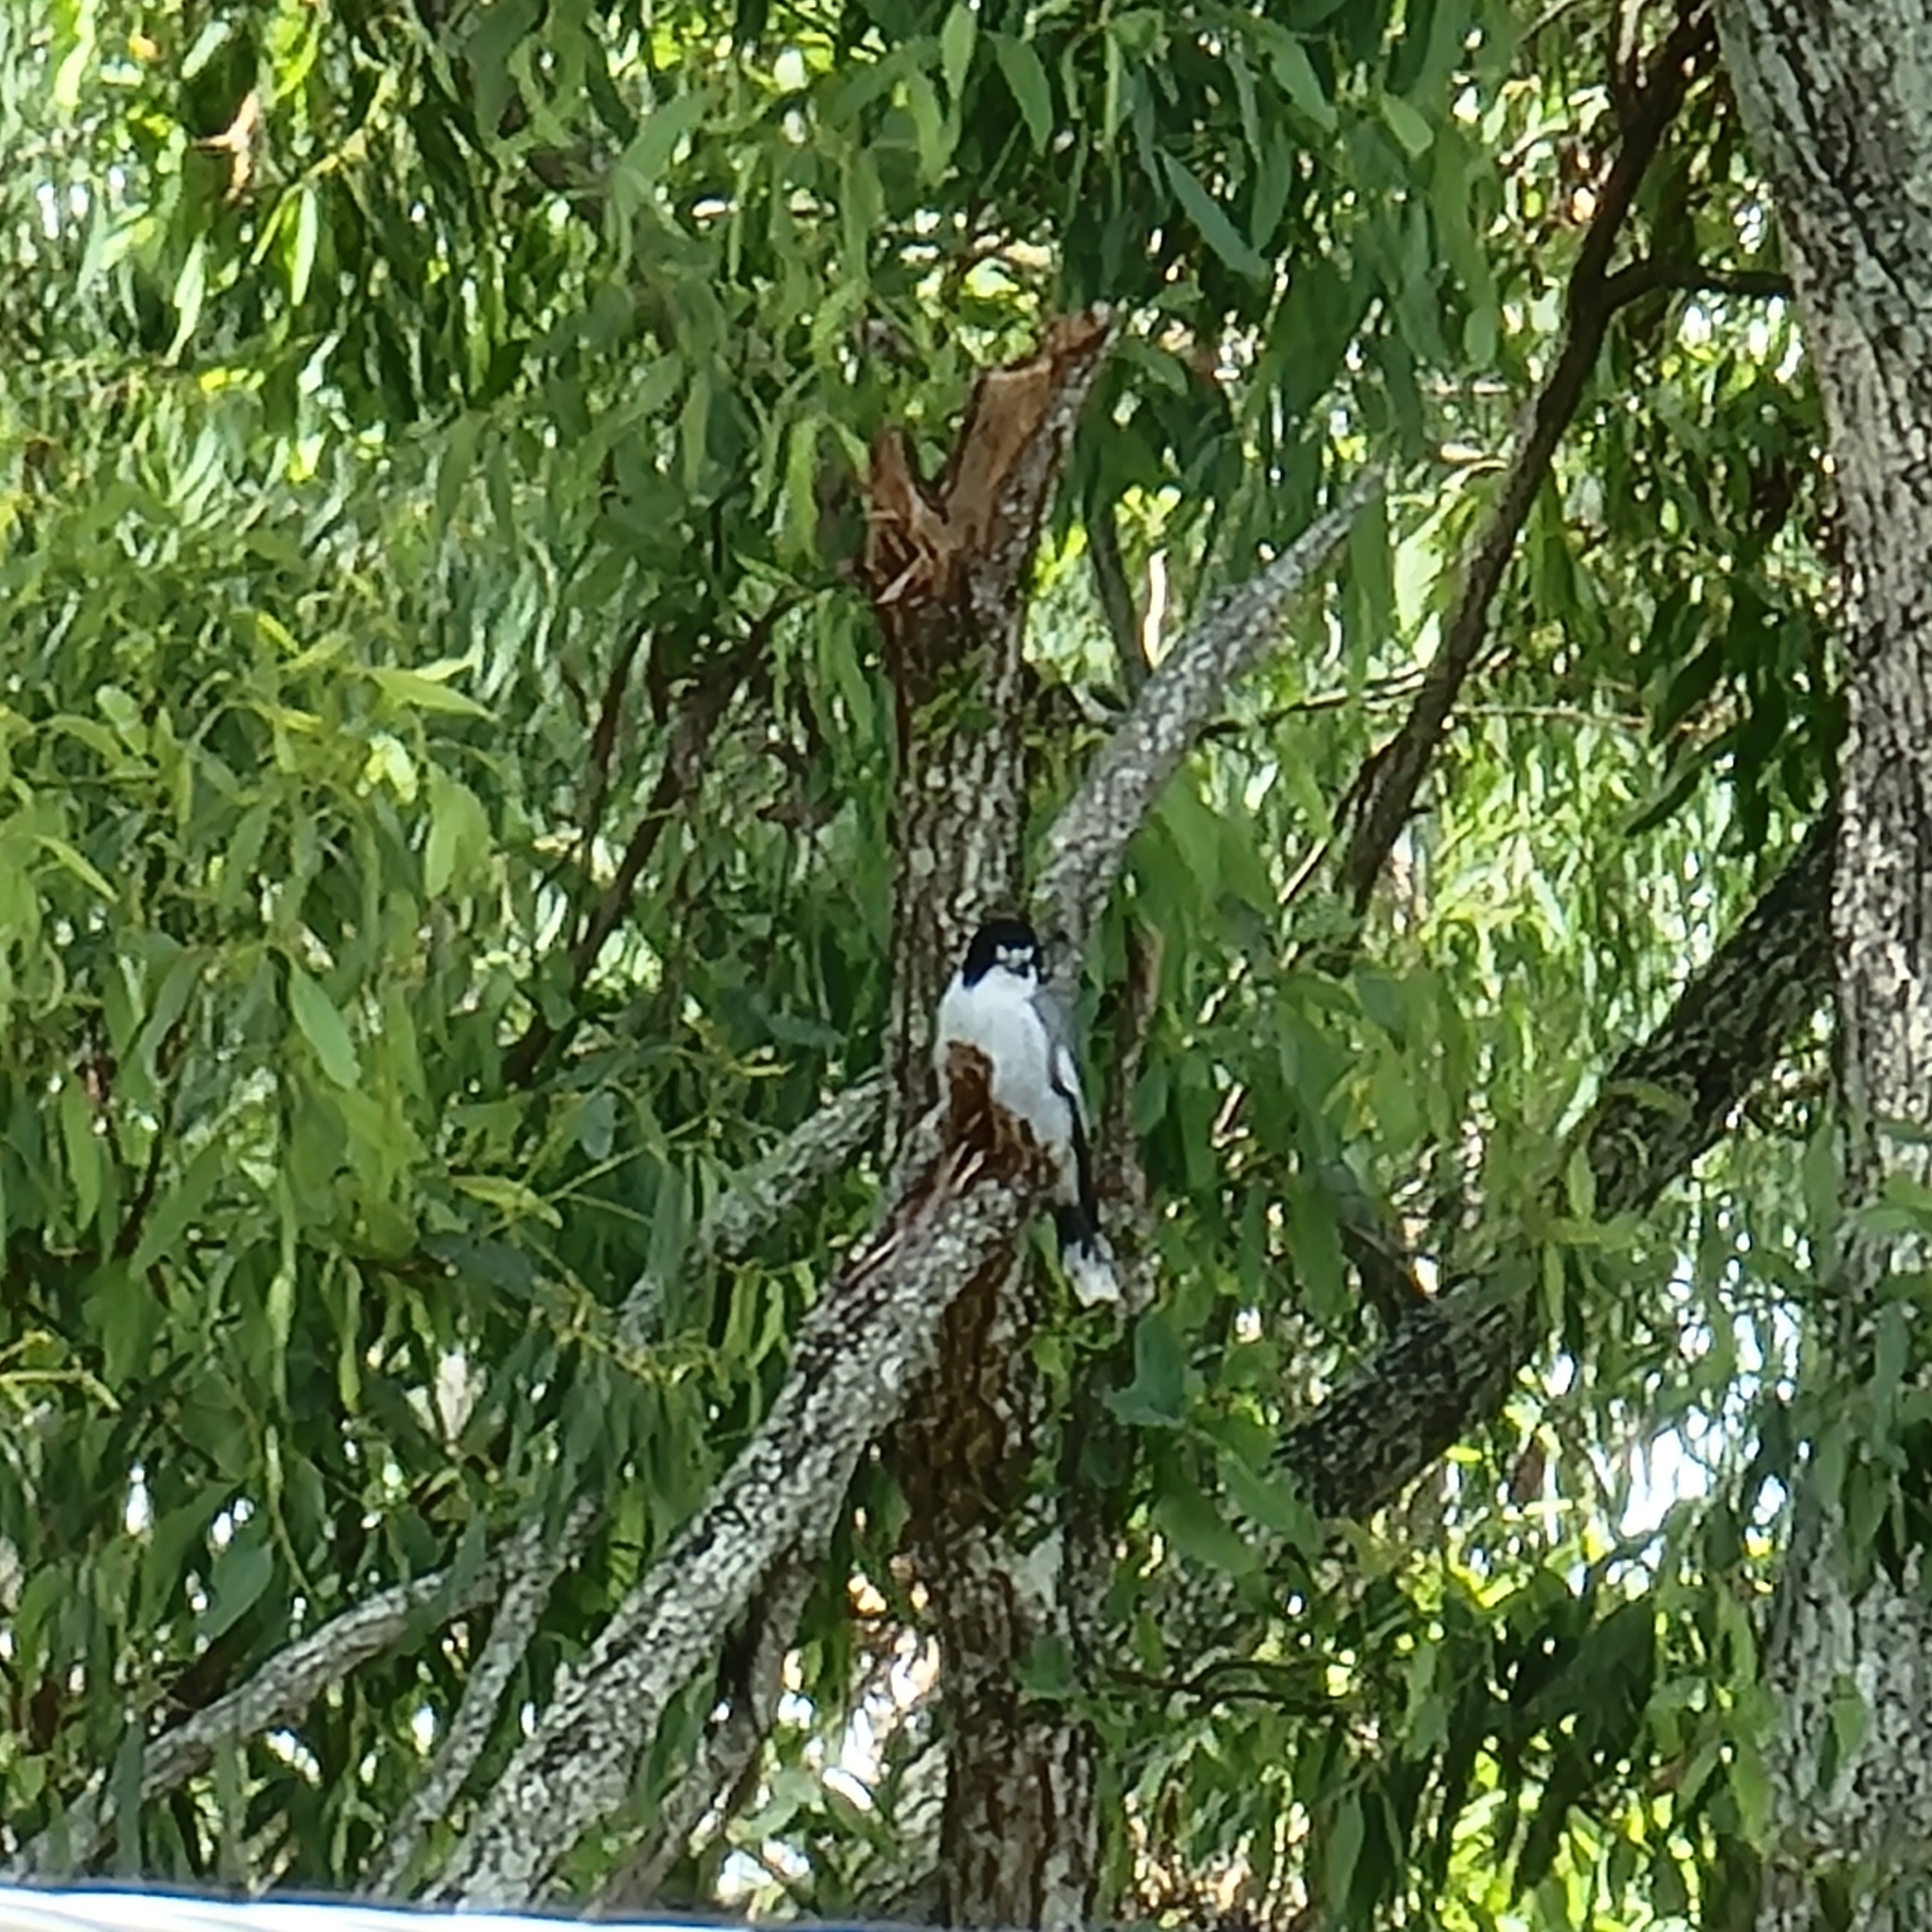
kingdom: Animalia
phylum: Chordata
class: Aves
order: Passeriformes
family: Cracticidae
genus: Cracticus
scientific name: Cracticus torquatus
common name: Grey butcherbird
